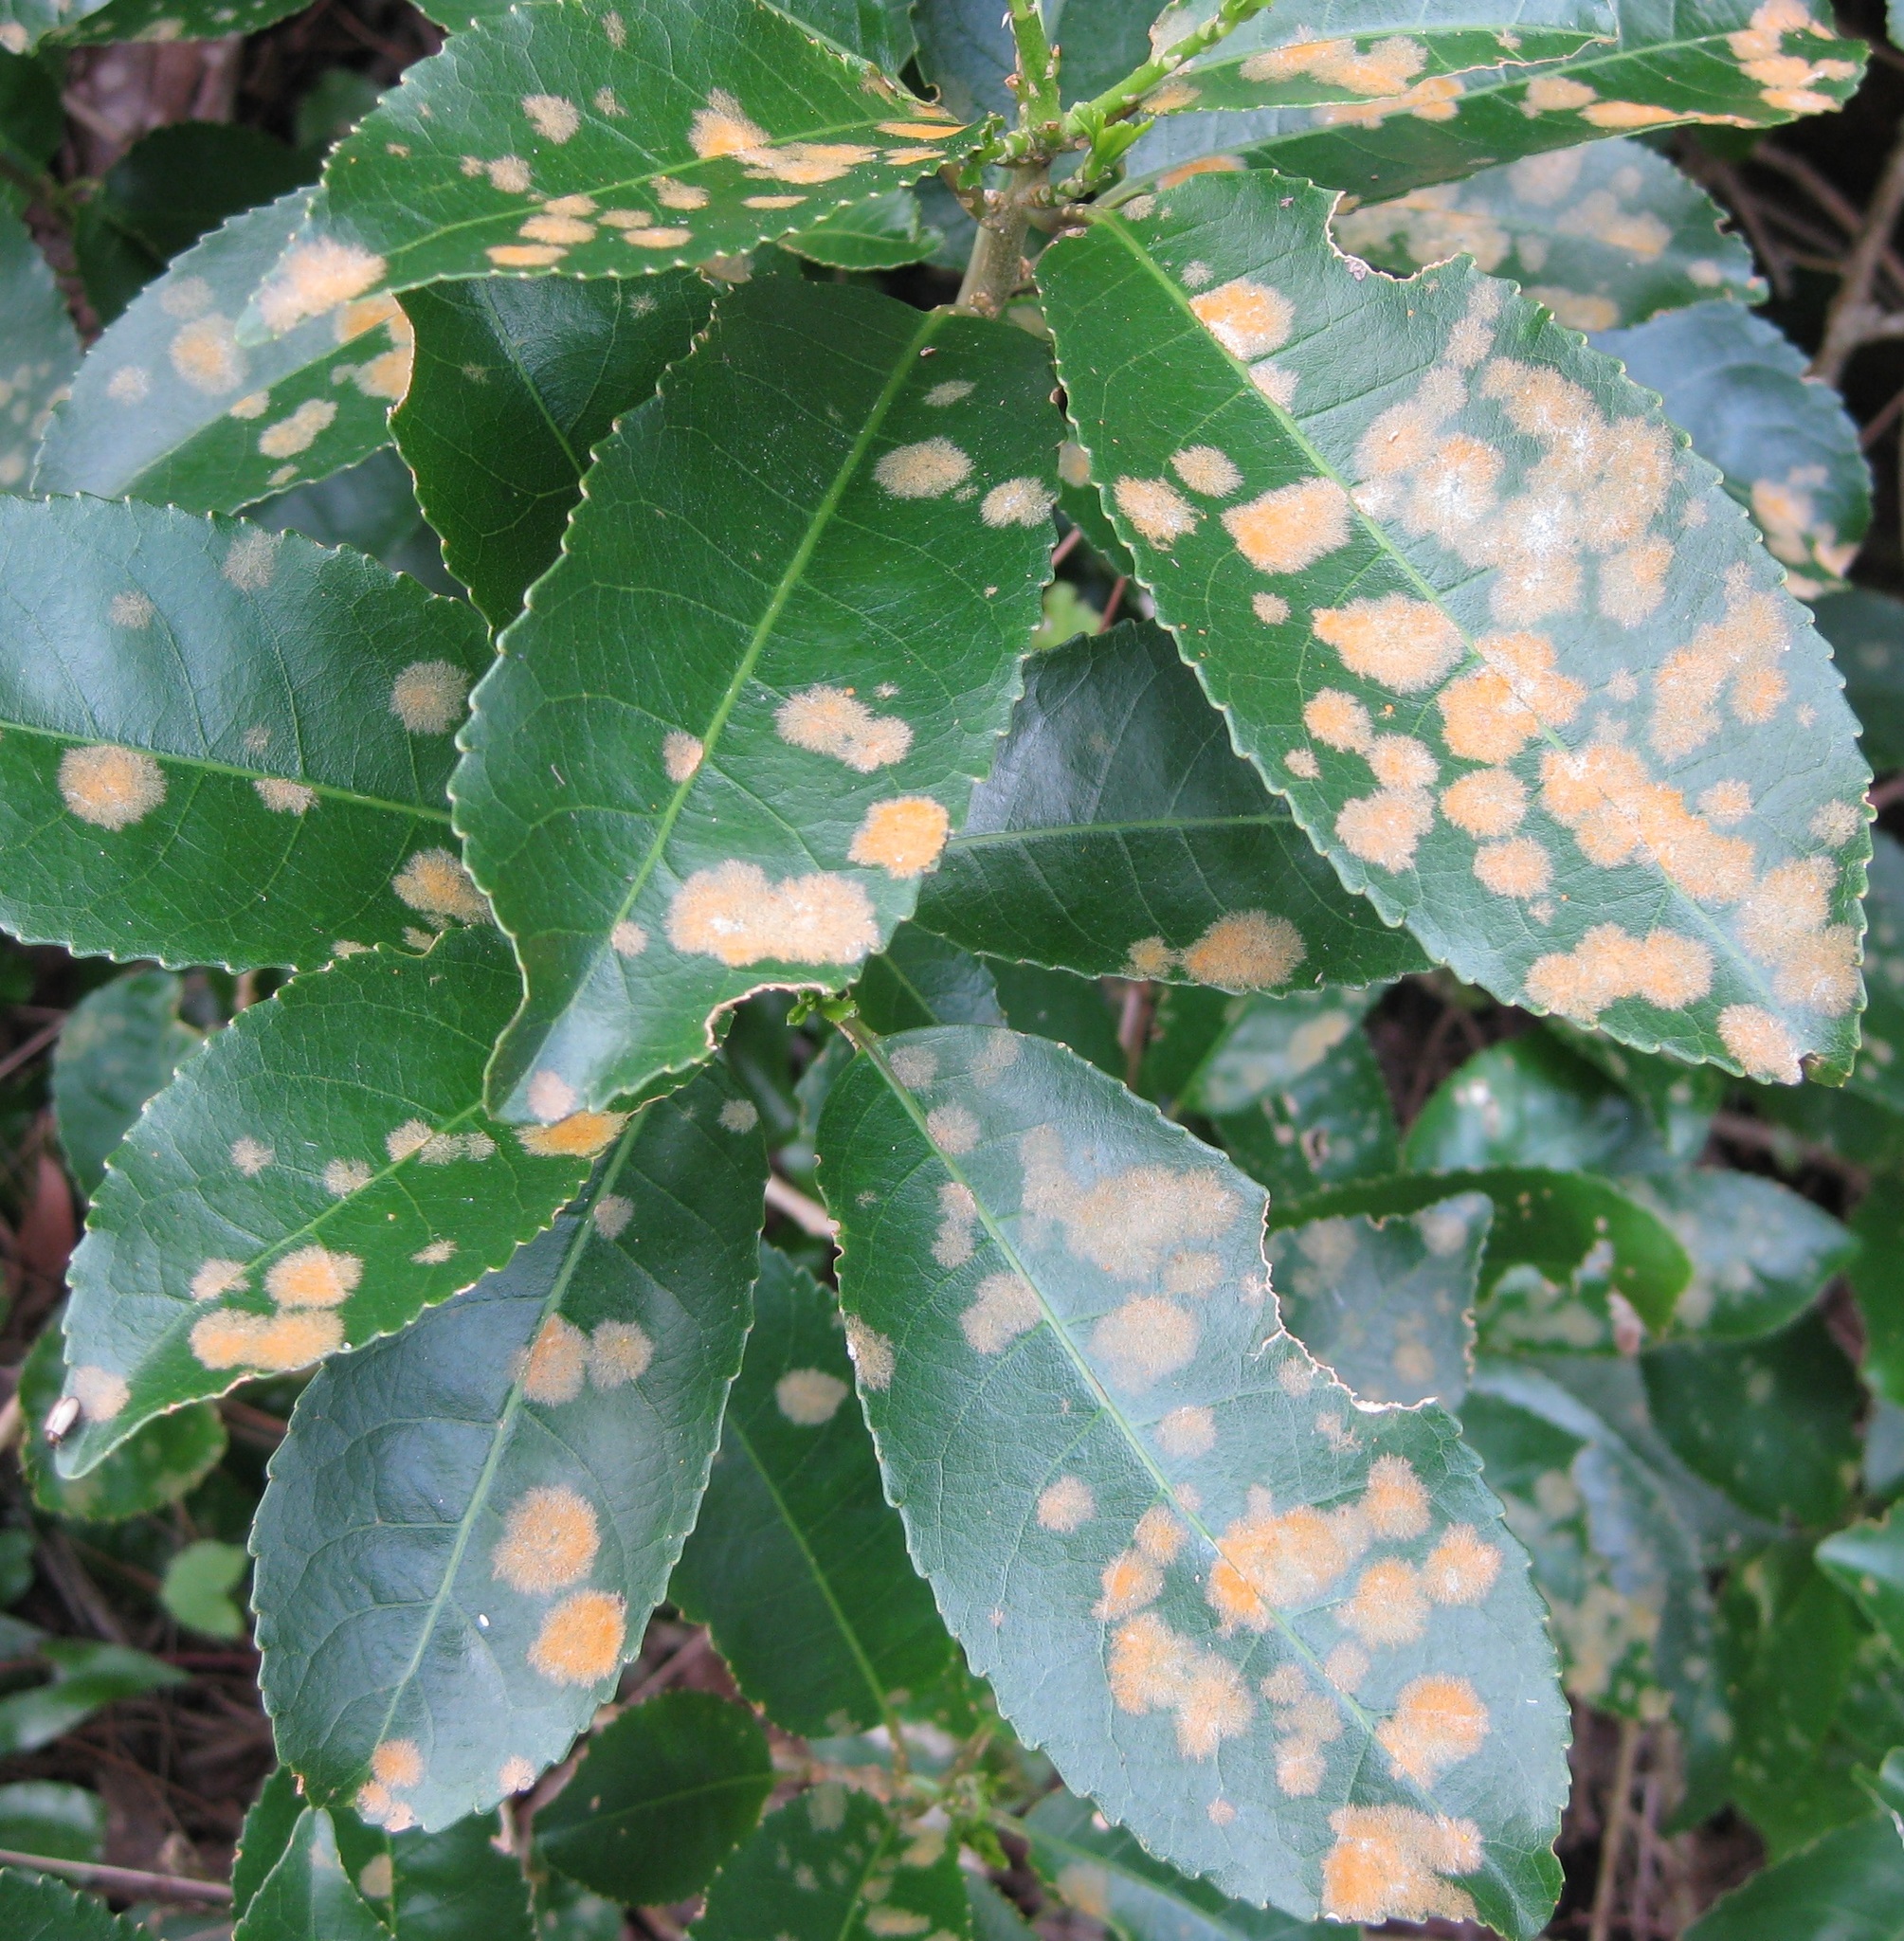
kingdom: Plantae
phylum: Chlorophyta
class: Ulvophyceae
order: Trentepohliales
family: Trentepohliaceae
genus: Cephaleuros
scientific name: Cephaleuros
